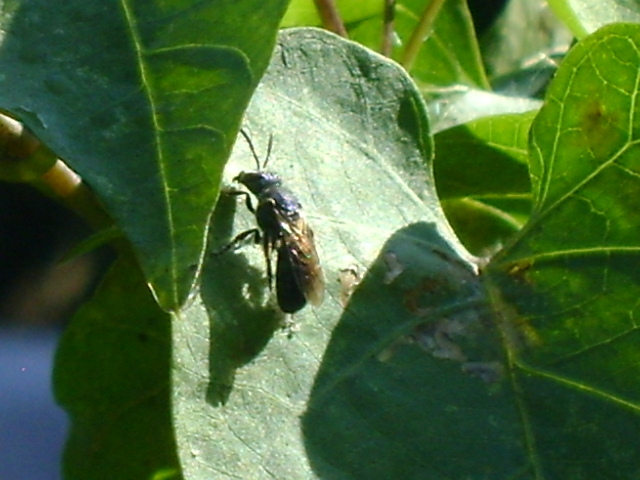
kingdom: Animalia
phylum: Arthropoda
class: Insecta
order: Hymenoptera
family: Halictidae
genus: Augochlora
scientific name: Augochlora nigrocyanea
